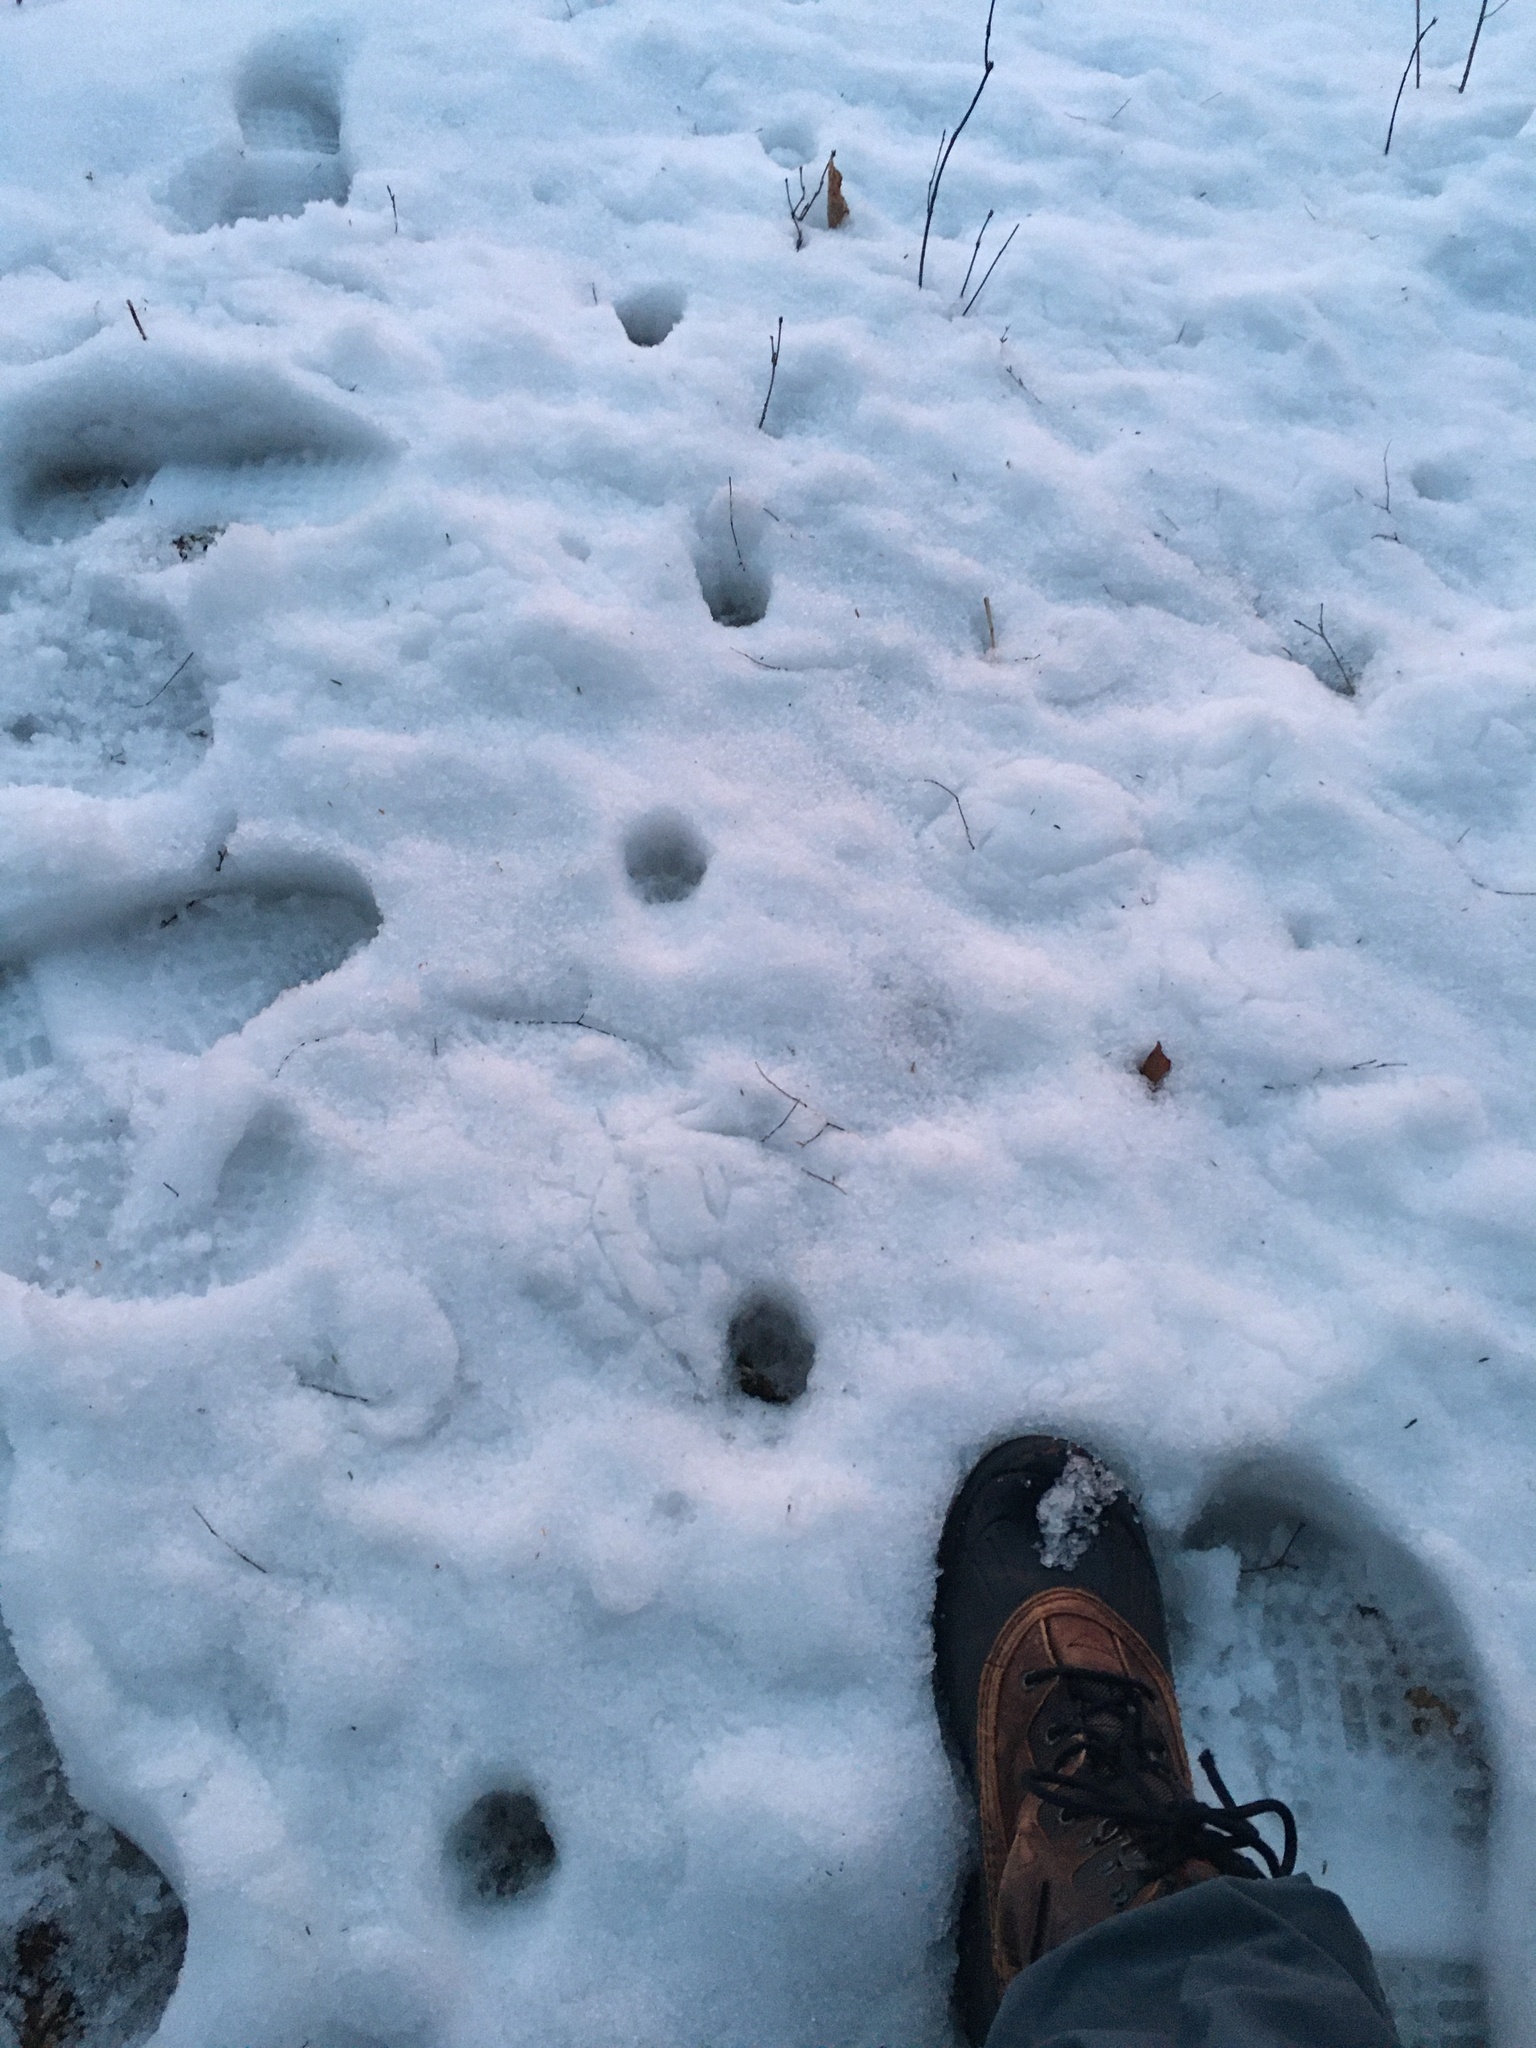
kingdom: Animalia
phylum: Chordata
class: Mammalia
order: Carnivora
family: Canidae
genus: Urocyon
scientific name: Urocyon cinereoargenteus
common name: Gray fox
